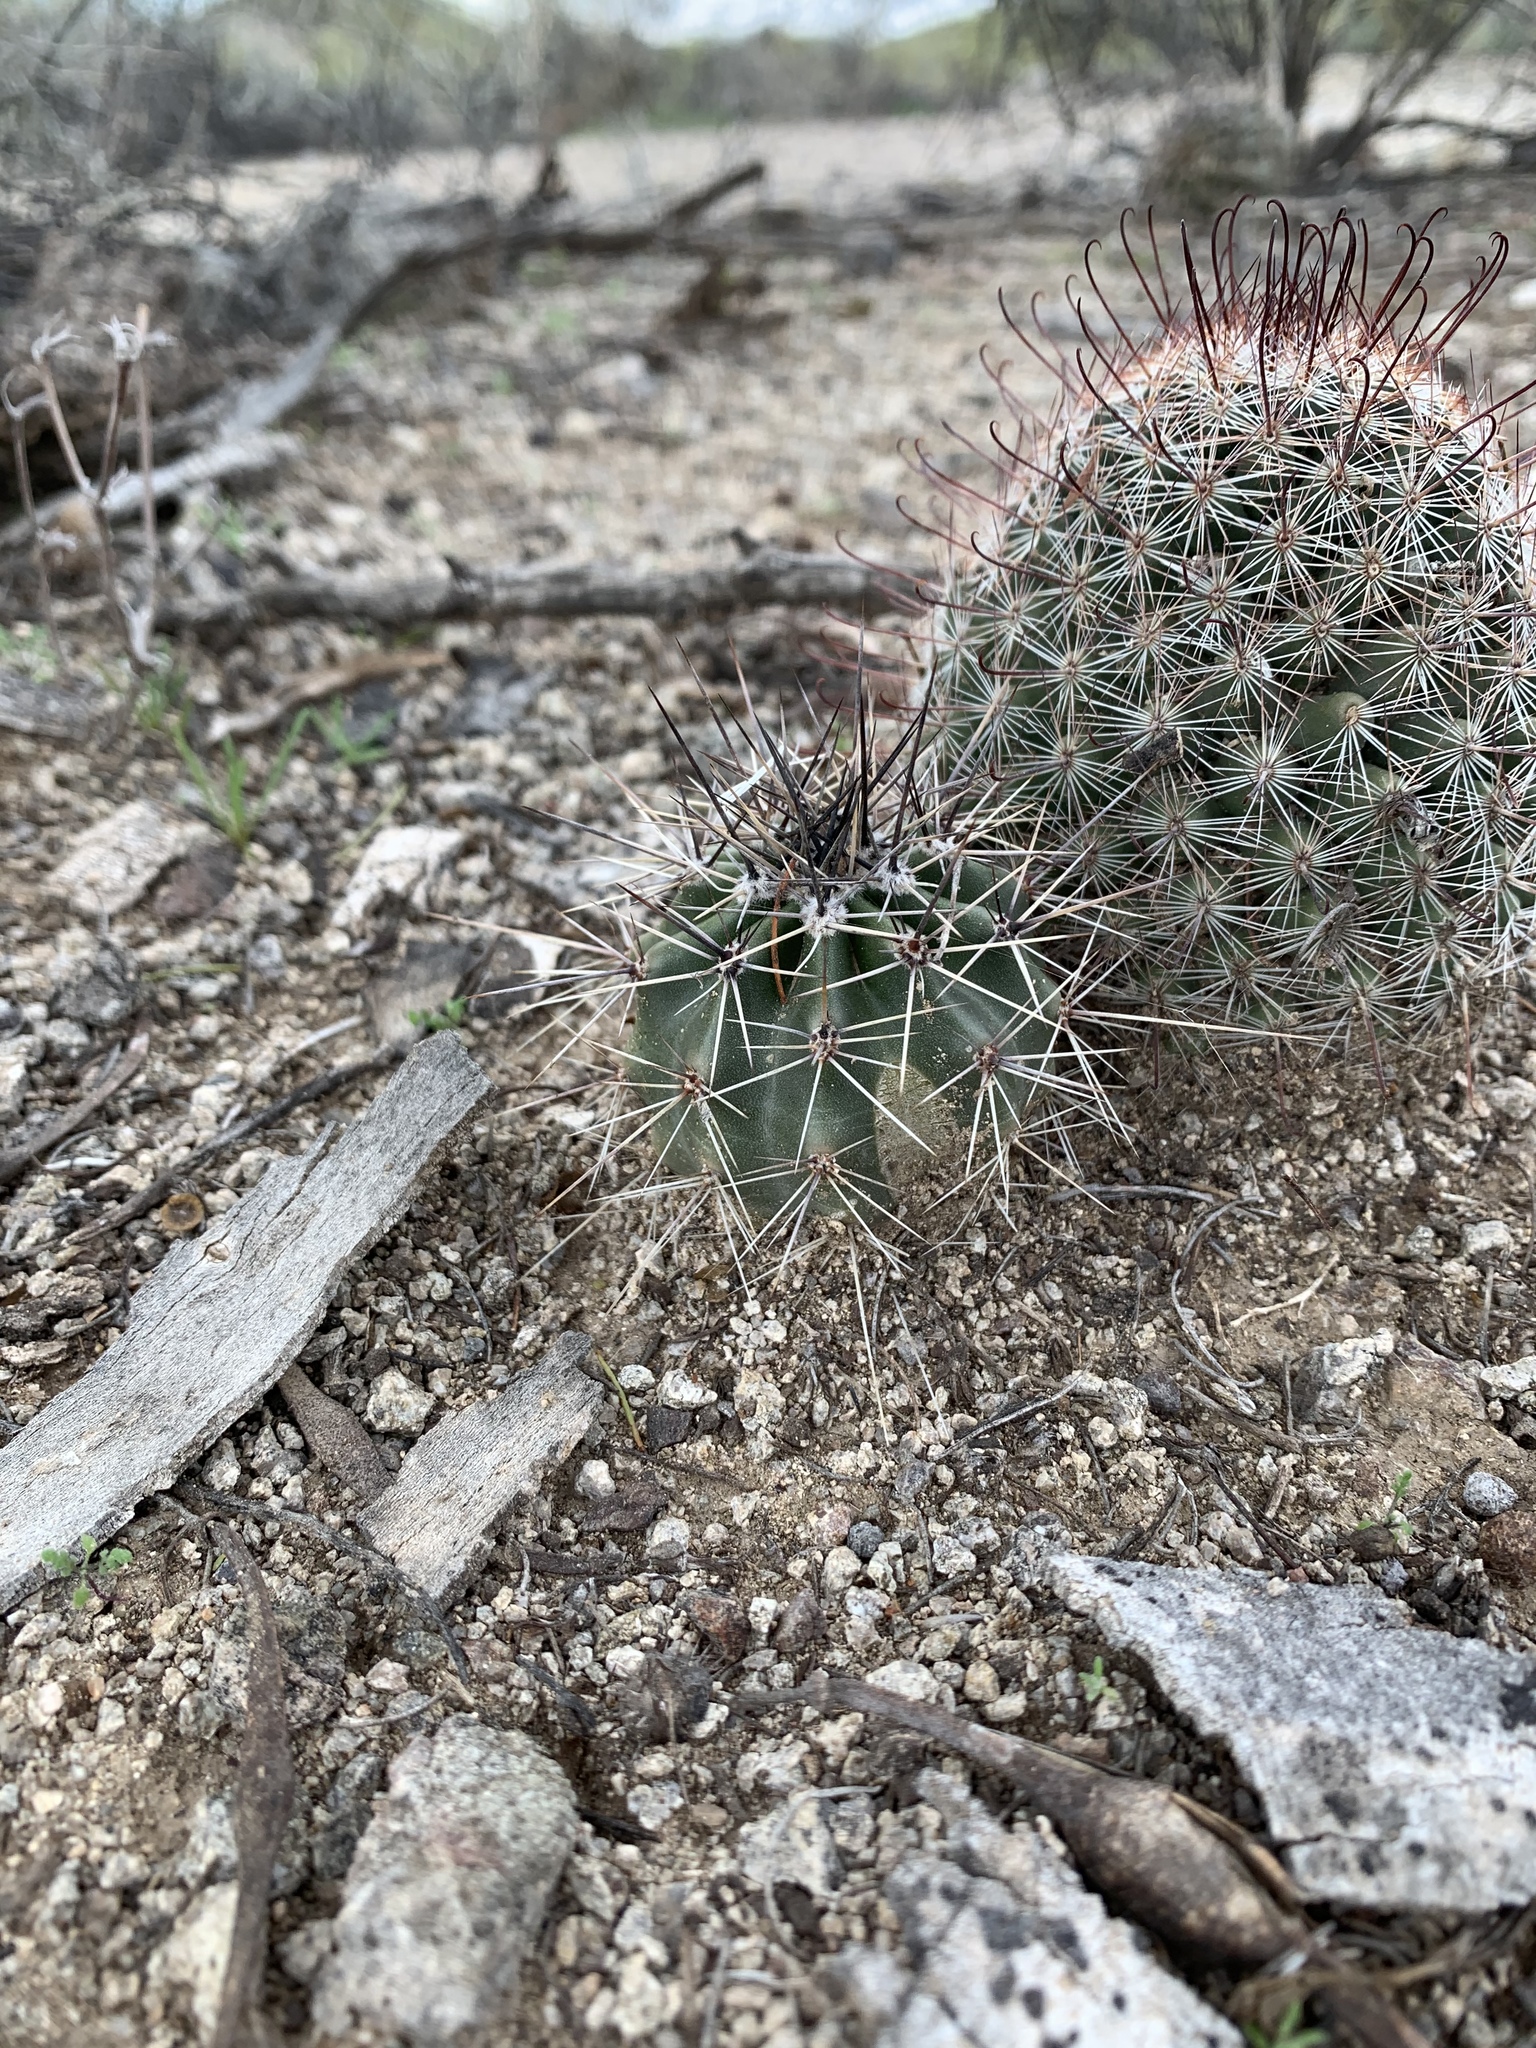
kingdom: Plantae
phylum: Tracheophyta
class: Magnoliopsida
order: Caryophyllales
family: Cactaceae
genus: Carnegiea
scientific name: Carnegiea gigantea
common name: Saguaro
